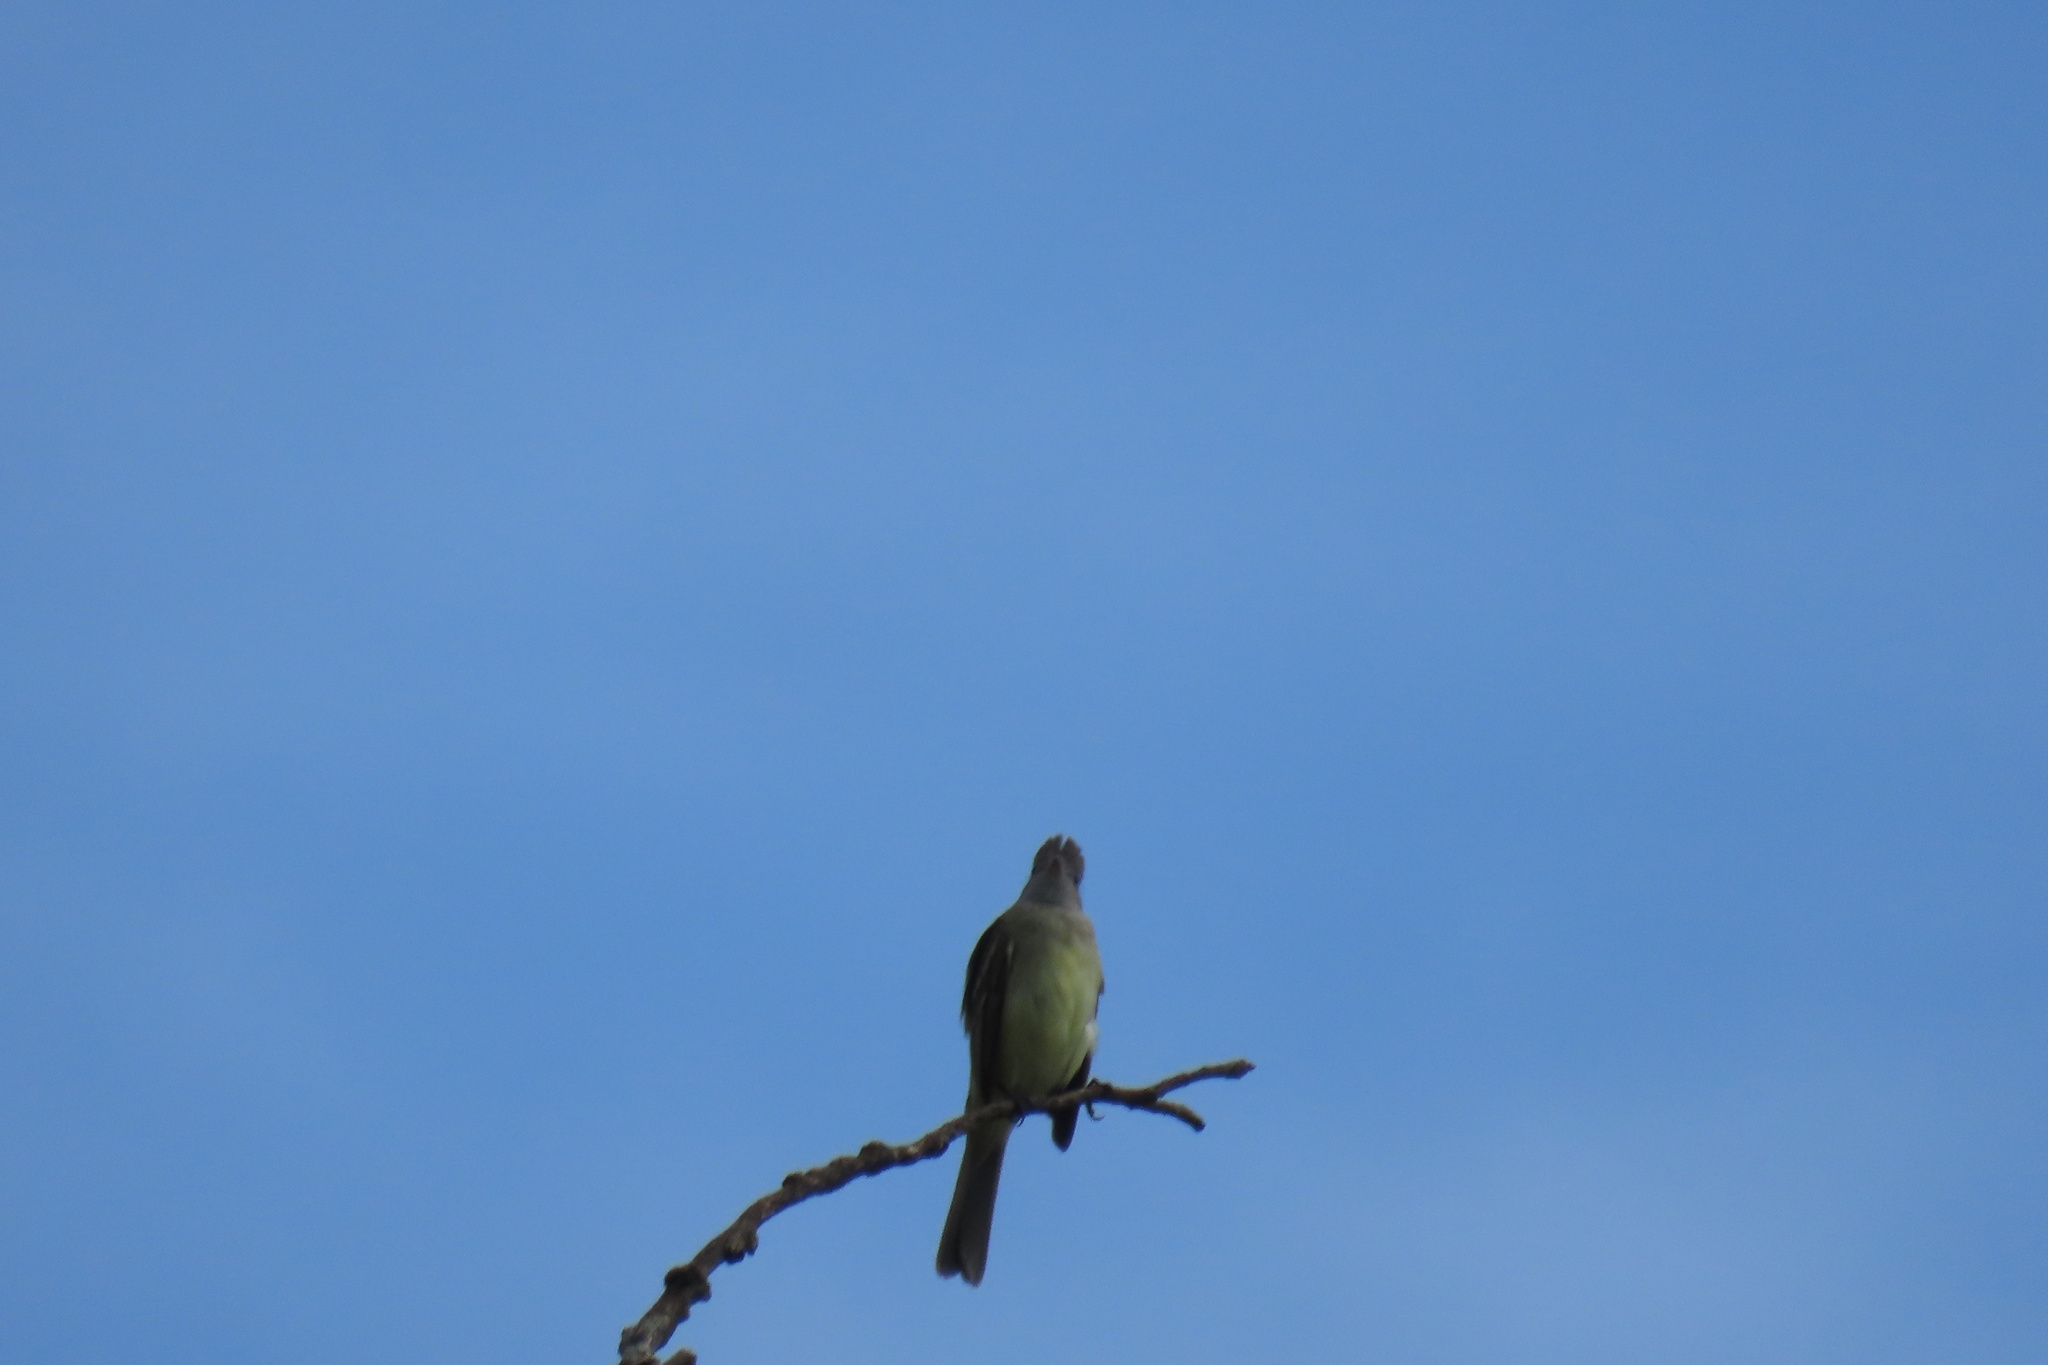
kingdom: Animalia
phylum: Chordata
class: Aves
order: Passeriformes
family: Tyrannidae
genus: Elaenia
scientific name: Elaenia flavogaster
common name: Yellow-bellied elaenia
